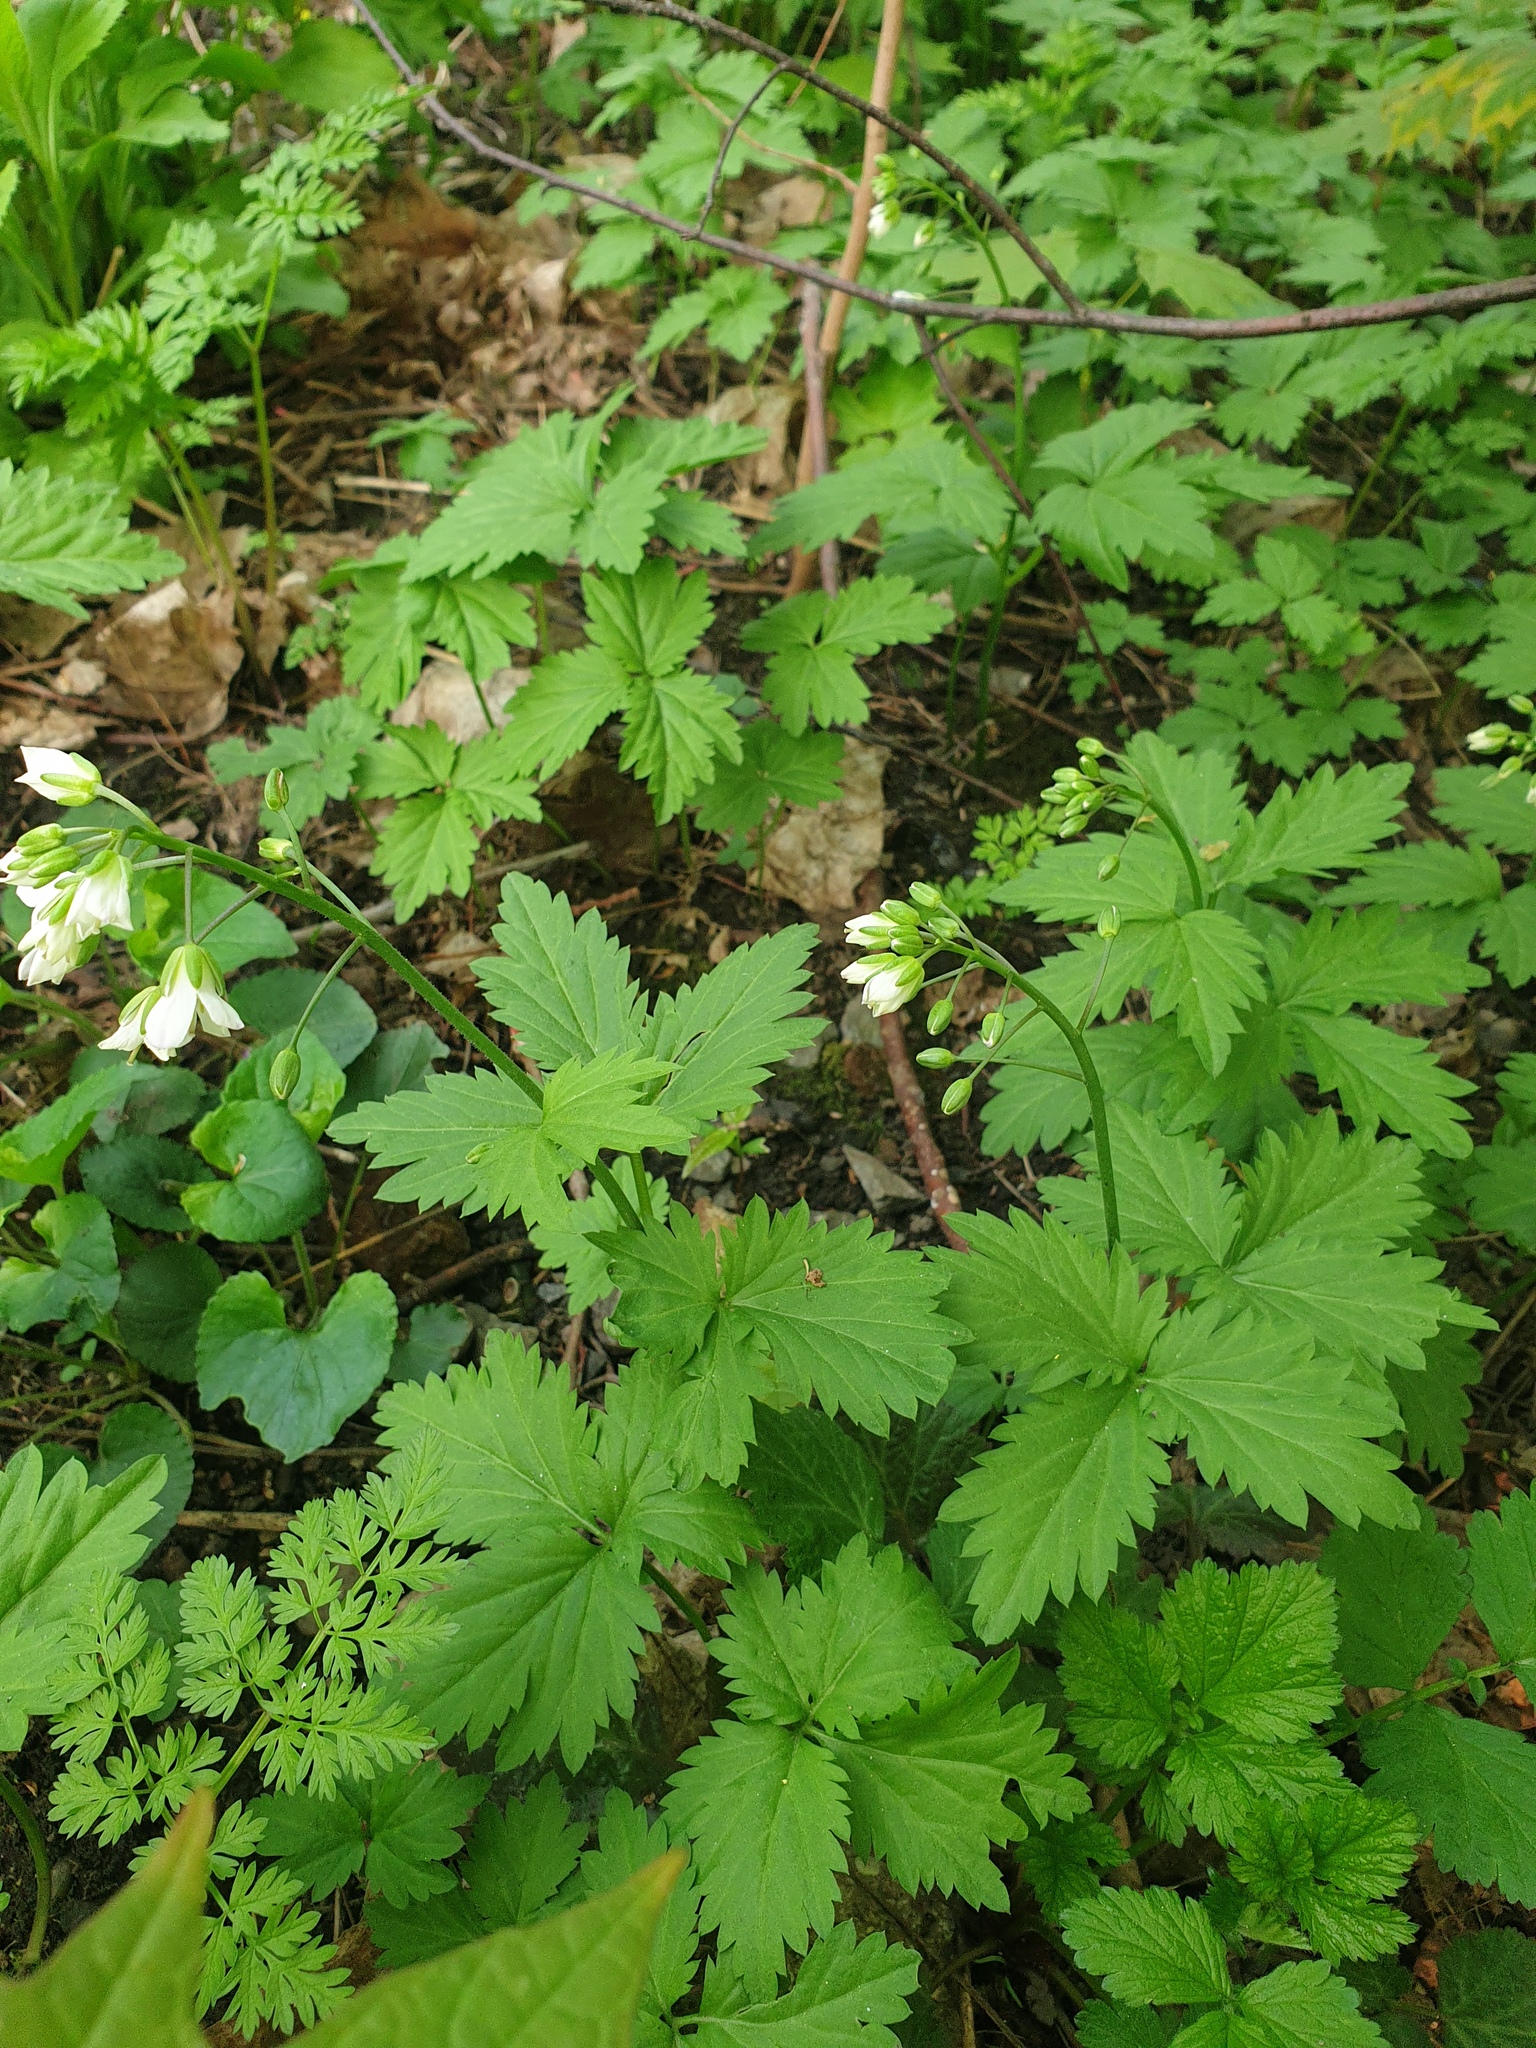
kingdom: Plantae
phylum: Tracheophyta
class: Magnoliopsida
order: Brassicales
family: Brassicaceae
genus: Cardamine
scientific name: Cardamine maxima
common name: Great bittercress
